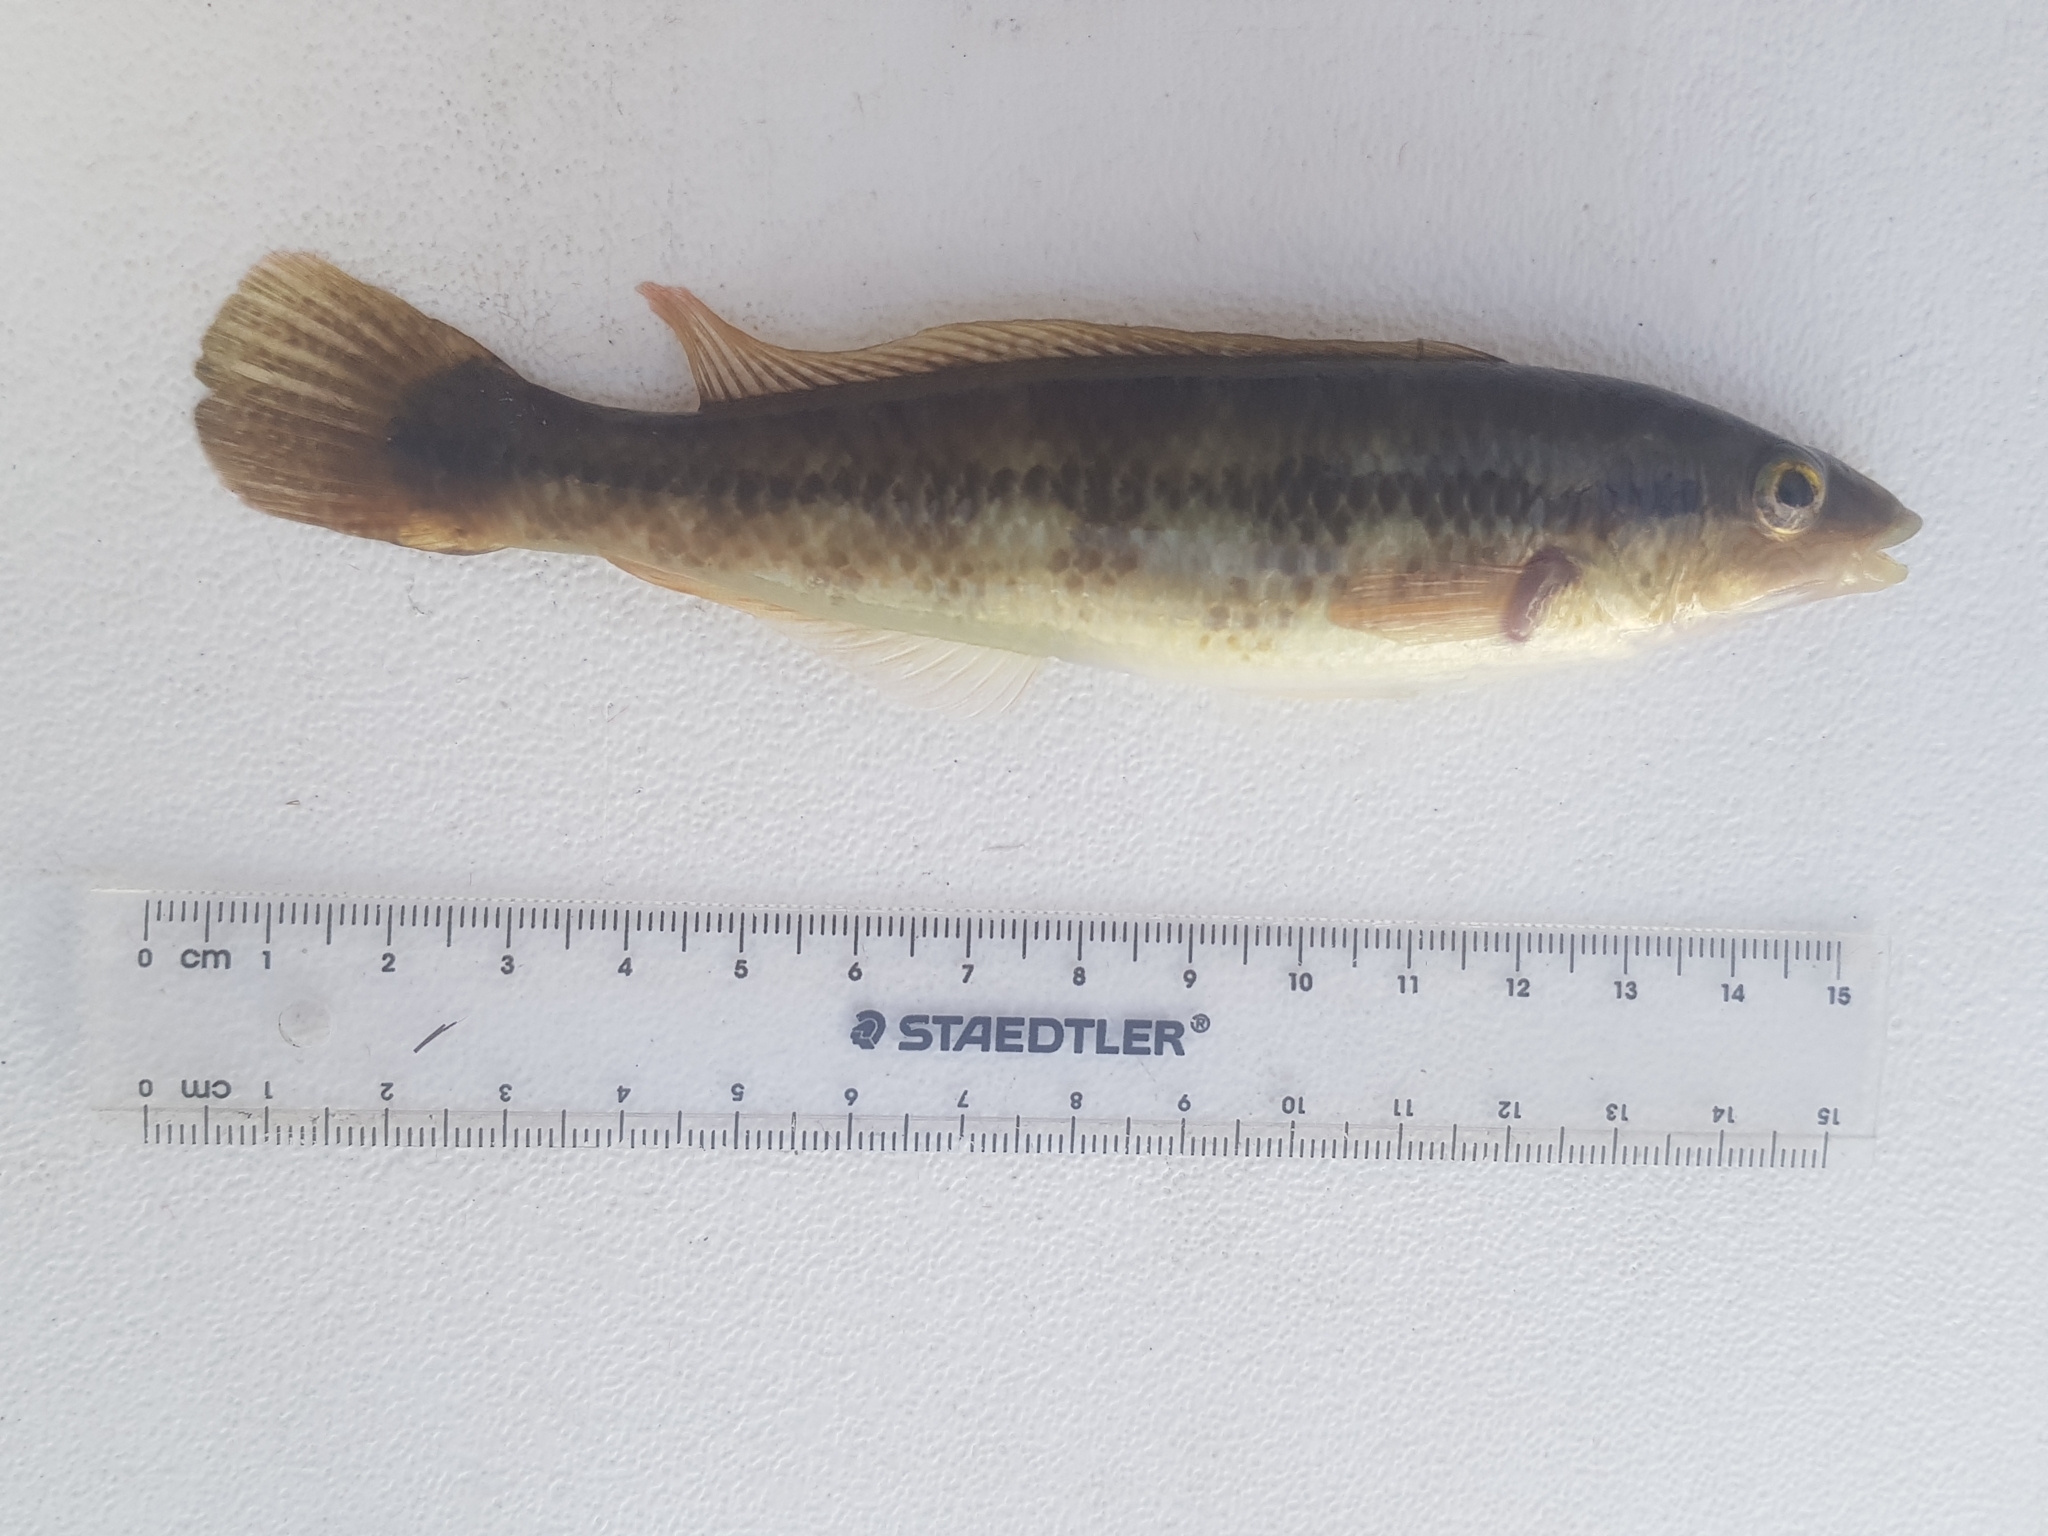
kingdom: Animalia
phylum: Chordata
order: Perciformes
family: Odacidae
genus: Neoodax
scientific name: Neoodax balteatus
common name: Ground mullet
